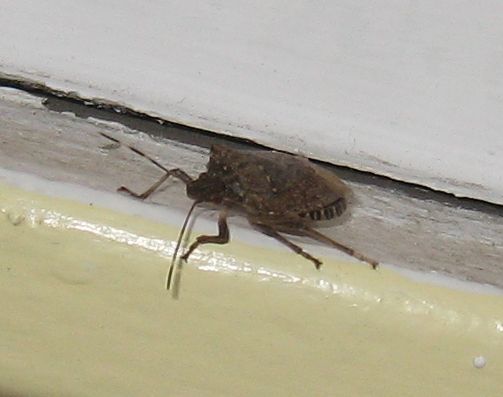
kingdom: Animalia
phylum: Arthropoda
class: Insecta
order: Hemiptera
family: Pentatomidae
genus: Halyomorpha
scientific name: Halyomorpha halys
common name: Brown marmorated stink bug
